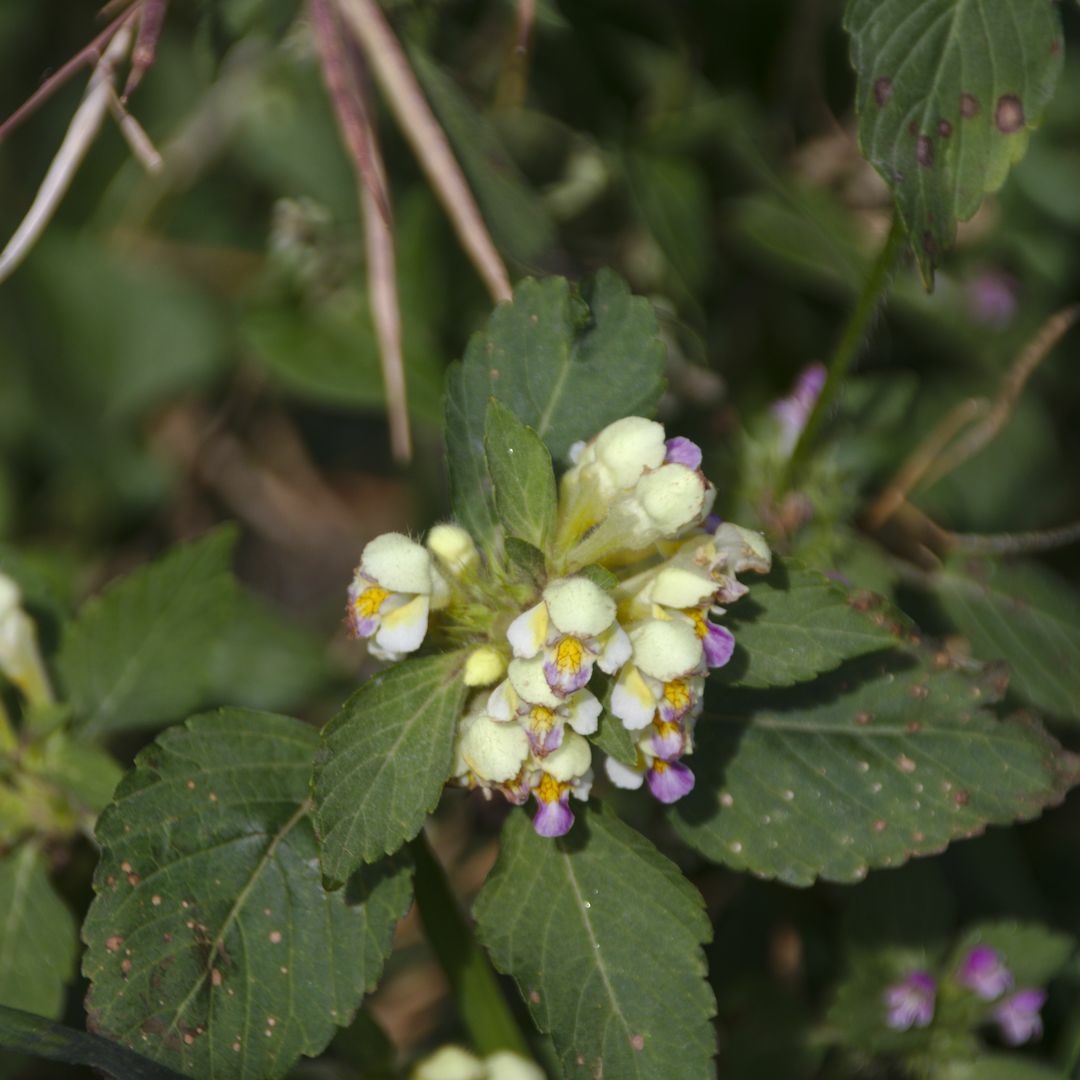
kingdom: Plantae
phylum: Tracheophyta
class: Magnoliopsida
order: Lamiales
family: Lamiaceae
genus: Galeopsis
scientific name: Galeopsis speciosa
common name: Large-flowered hemp-nettle
